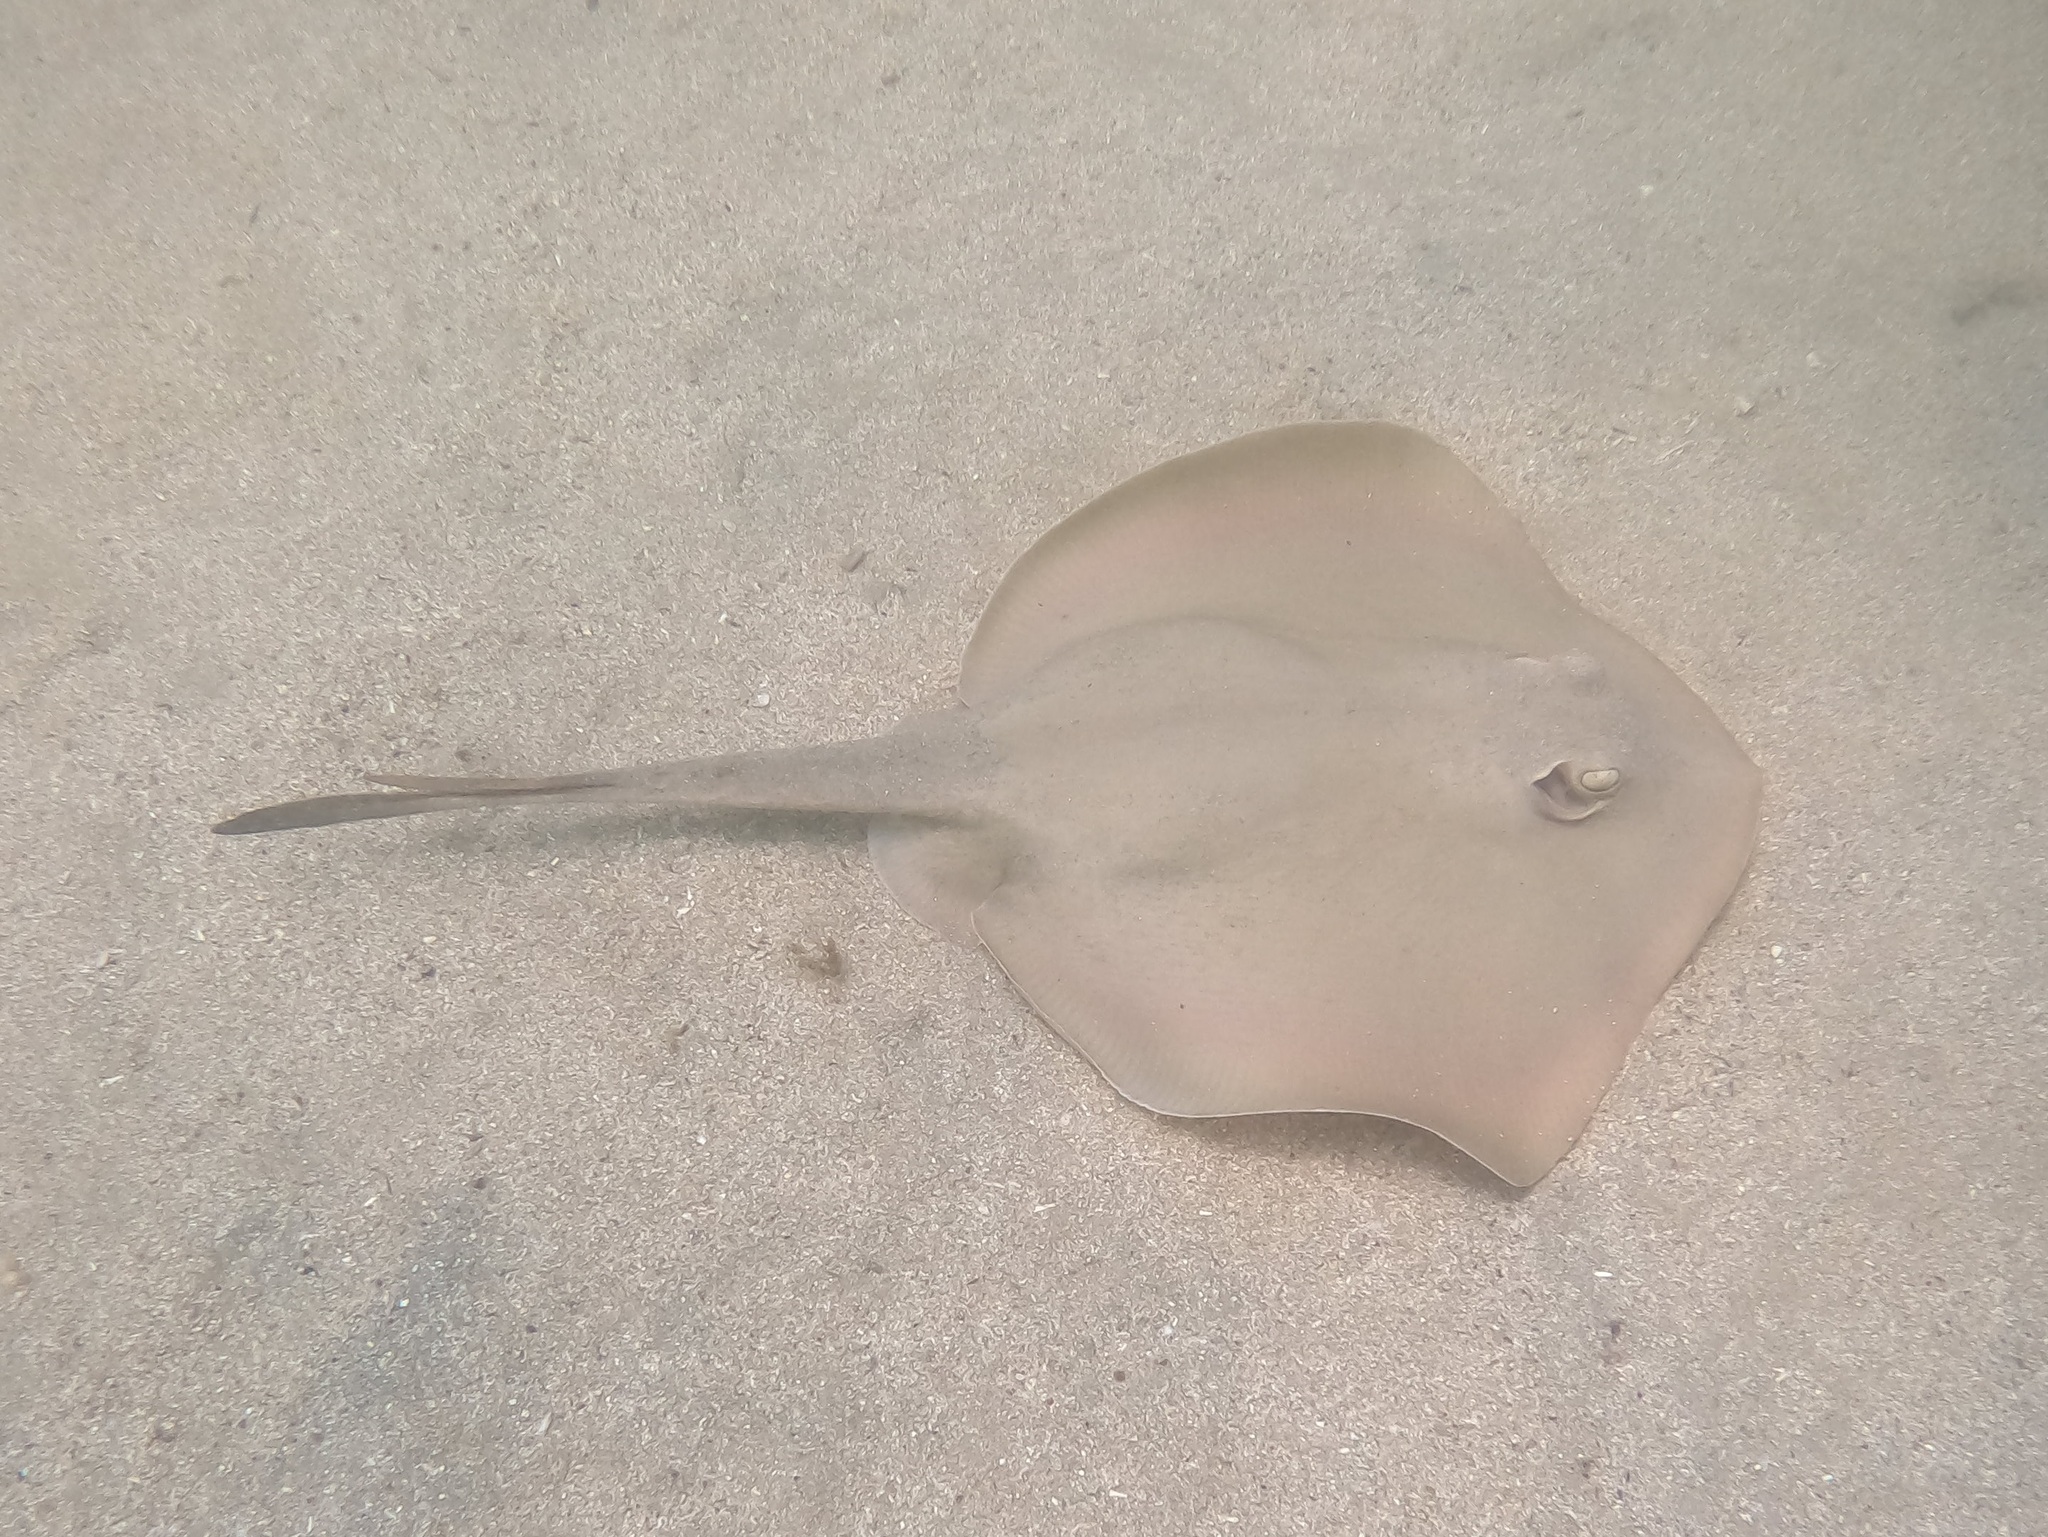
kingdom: Animalia
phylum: Chordata
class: Elasmobranchii
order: Myliobatiformes
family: Urolophidae
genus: Trygonoptera
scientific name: Trygonoptera testacea
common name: Common stingaree
